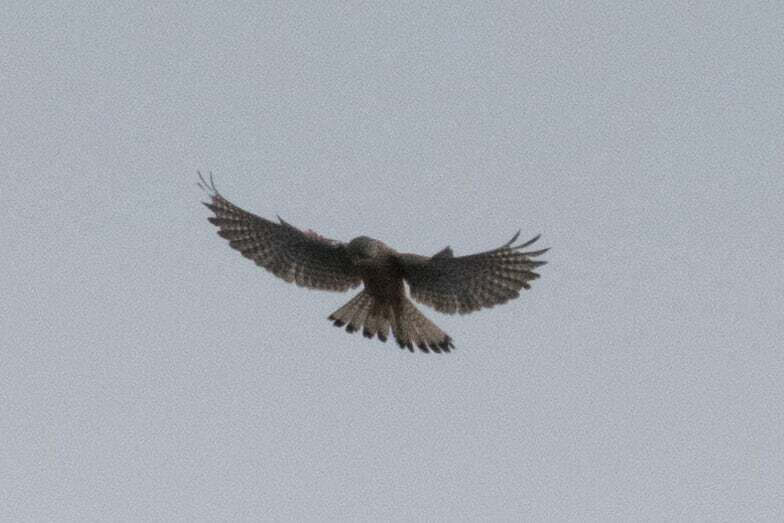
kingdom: Animalia
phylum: Chordata
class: Aves
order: Falconiformes
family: Falconidae
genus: Falco
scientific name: Falco tinnunculus
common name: Common kestrel
